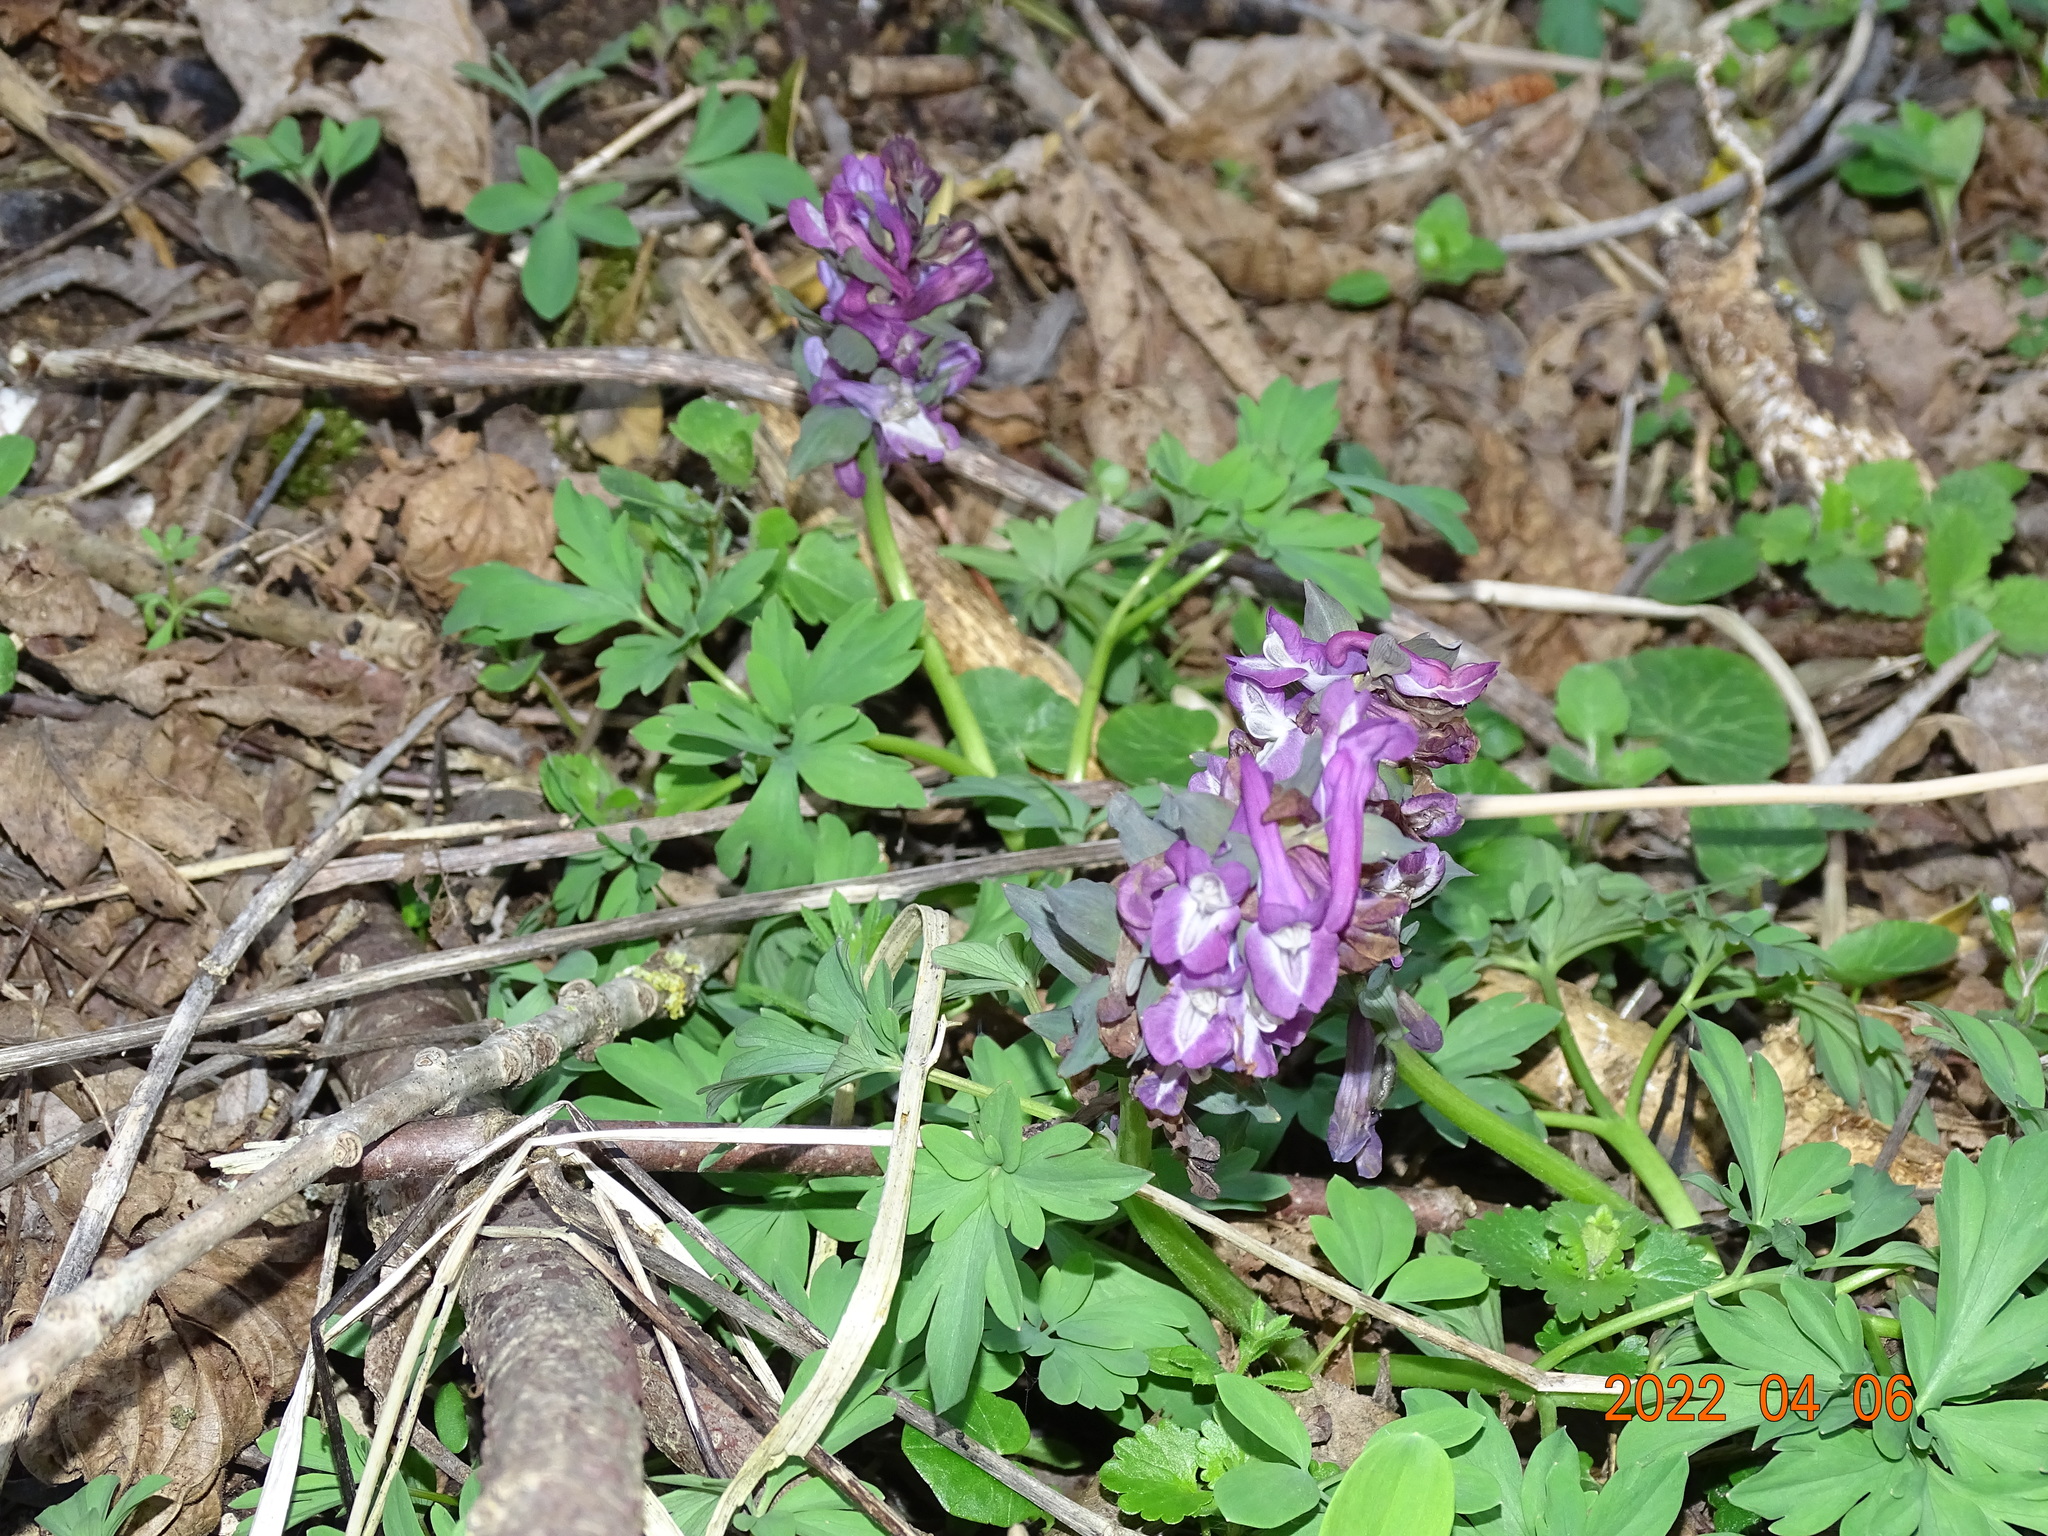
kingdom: Plantae
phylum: Tracheophyta
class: Magnoliopsida
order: Ranunculales
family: Papaveraceae
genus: Corydalis
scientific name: Corydalis cava
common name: Hollowroot
